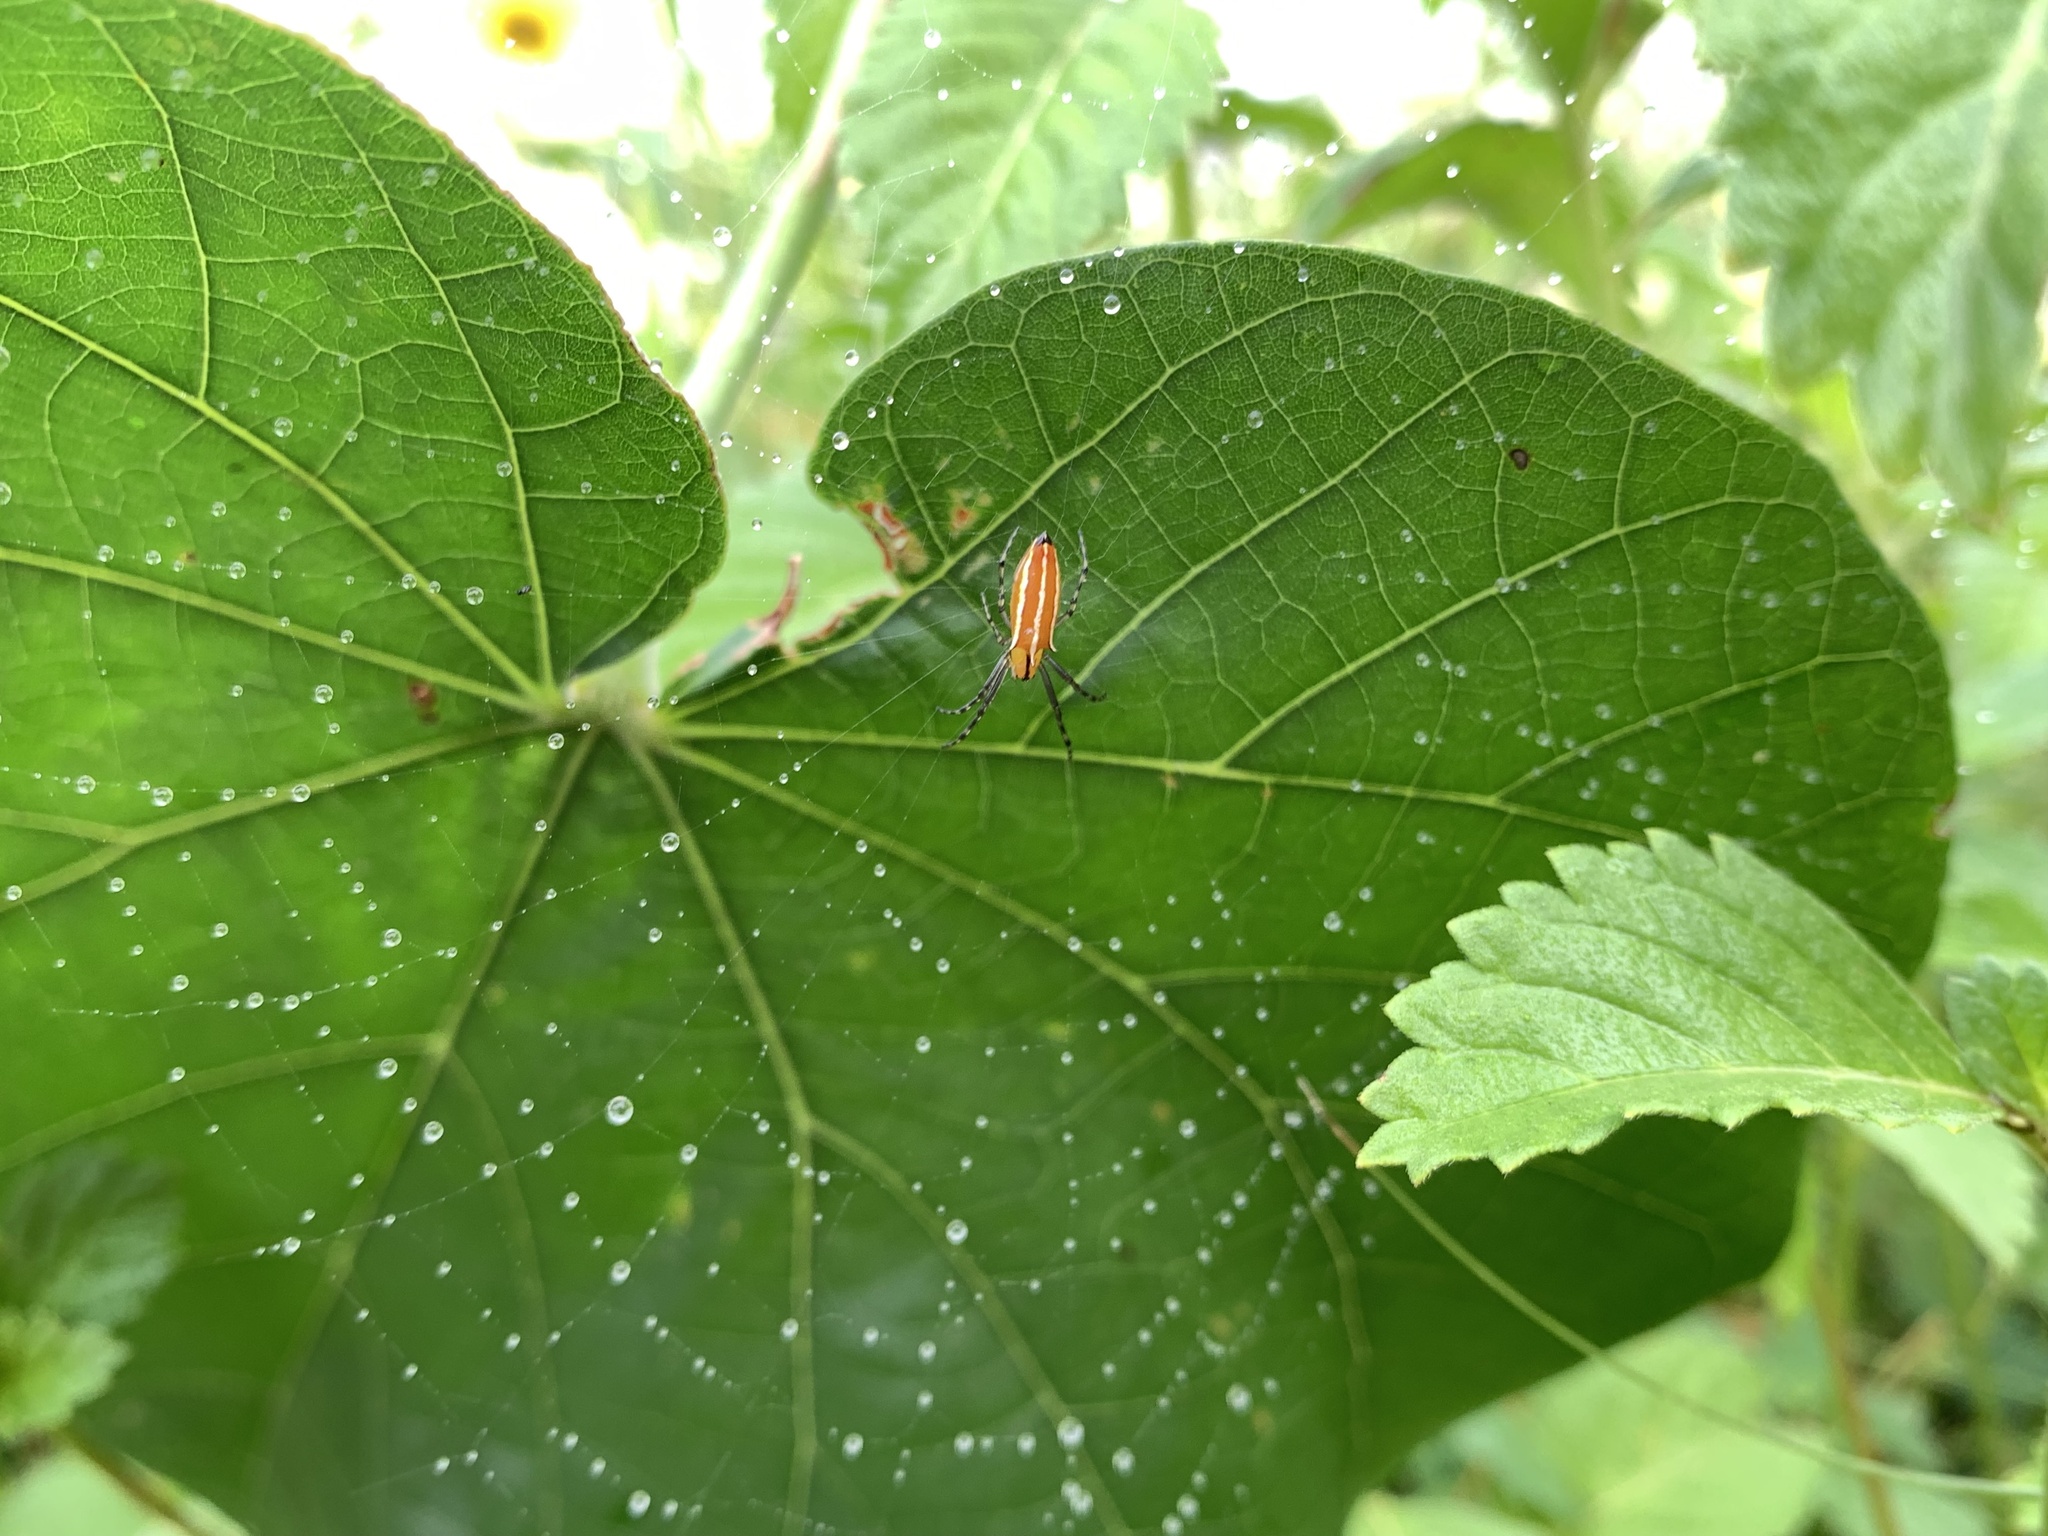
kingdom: Animalia
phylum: Arthropoda
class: Arachnida
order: Araneae
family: Araneidae
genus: Alpaida
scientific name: Alpaida trispinosa
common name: Orb weavers
